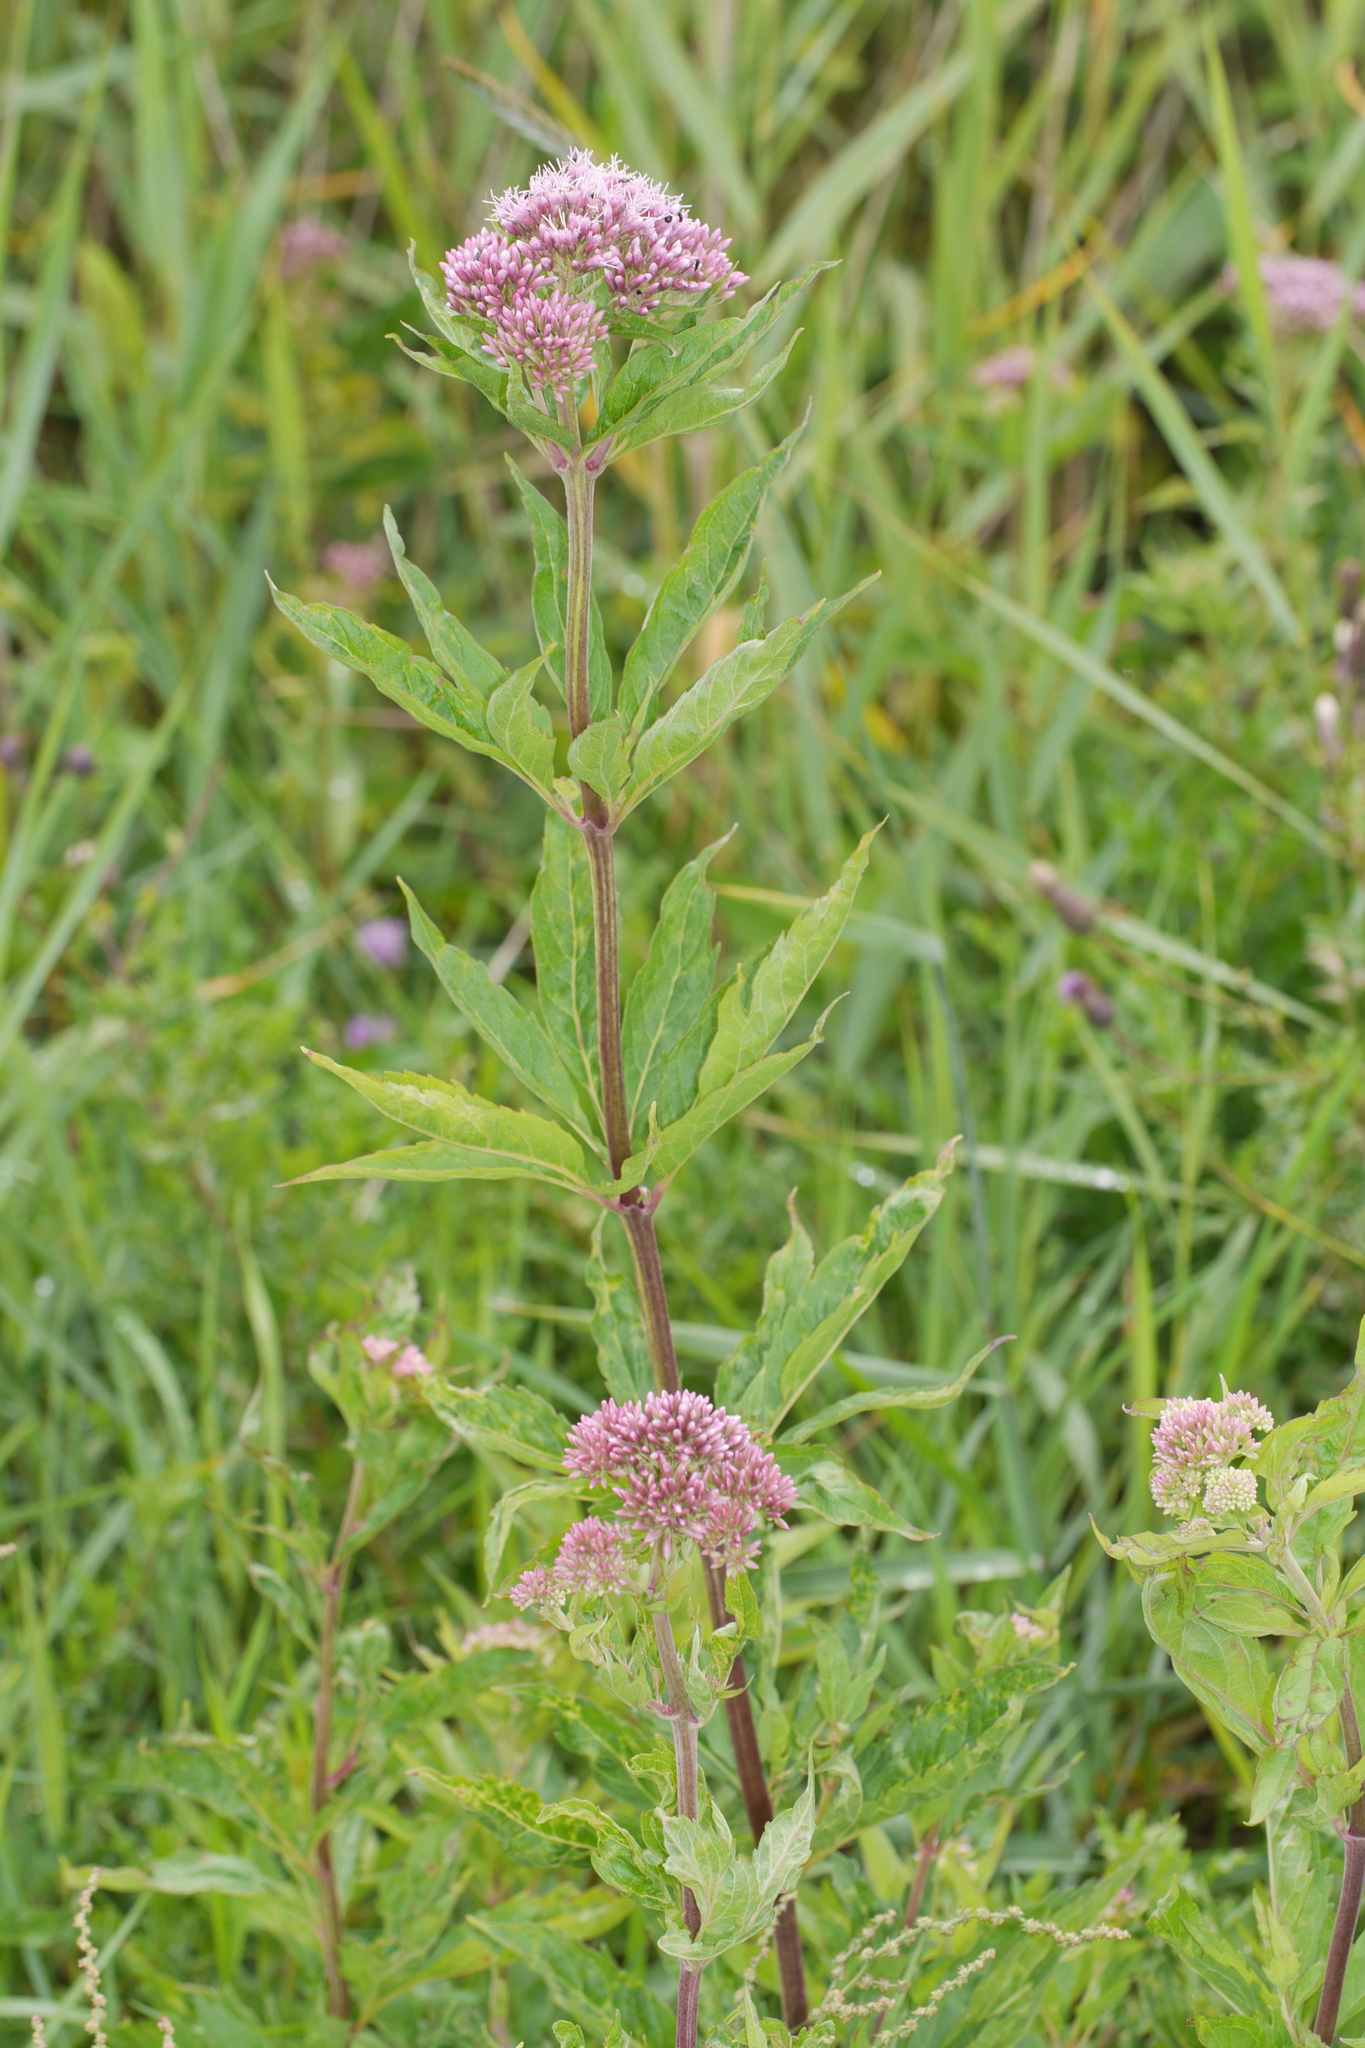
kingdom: Plantae
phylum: Tracheophyta
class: Magnoliopsida
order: Asterales
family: Asteraceae
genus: Eupatorium
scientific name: Eupatorium cannabinum
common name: Hemp-agrimony
